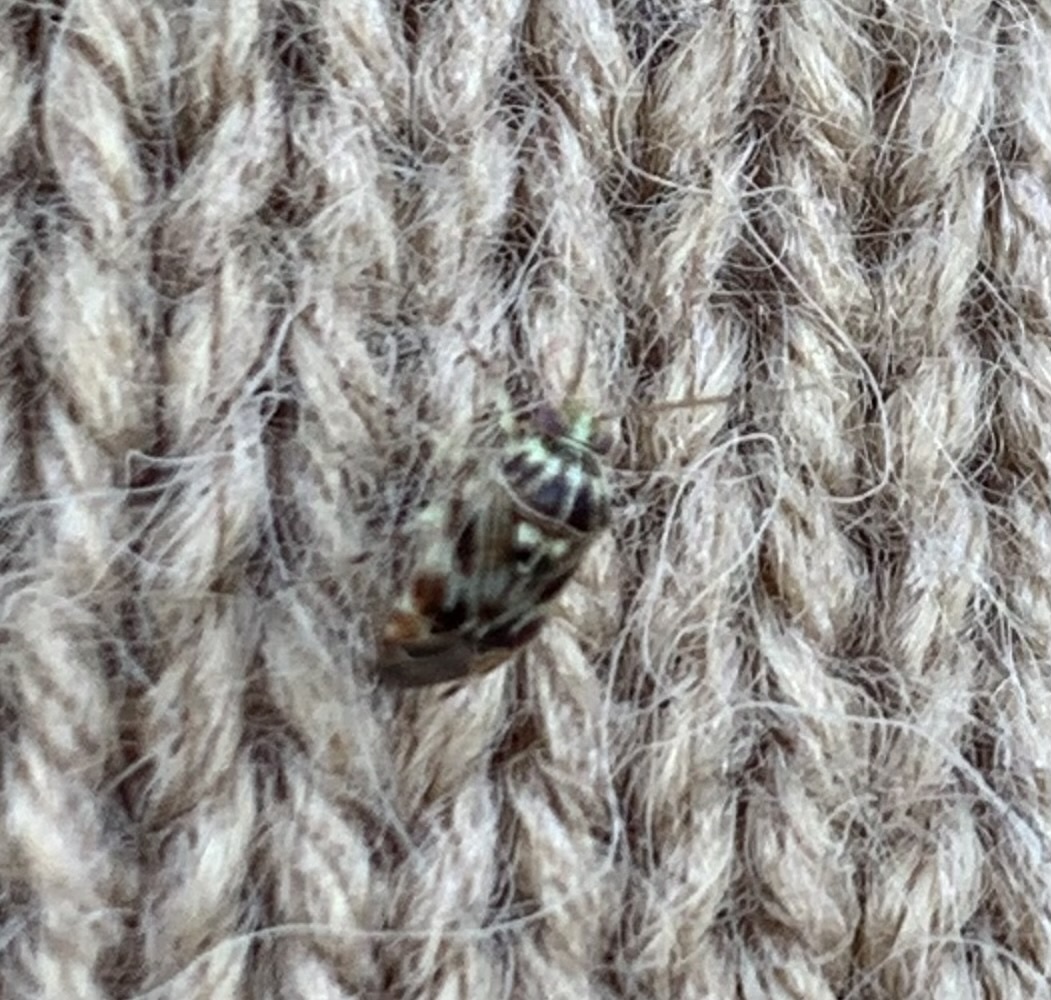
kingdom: Animalia
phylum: Arthropoda
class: Insecta
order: Hemiptera
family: Miridae
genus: Tropidosteptes
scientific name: Tropidosteptes quercicola
